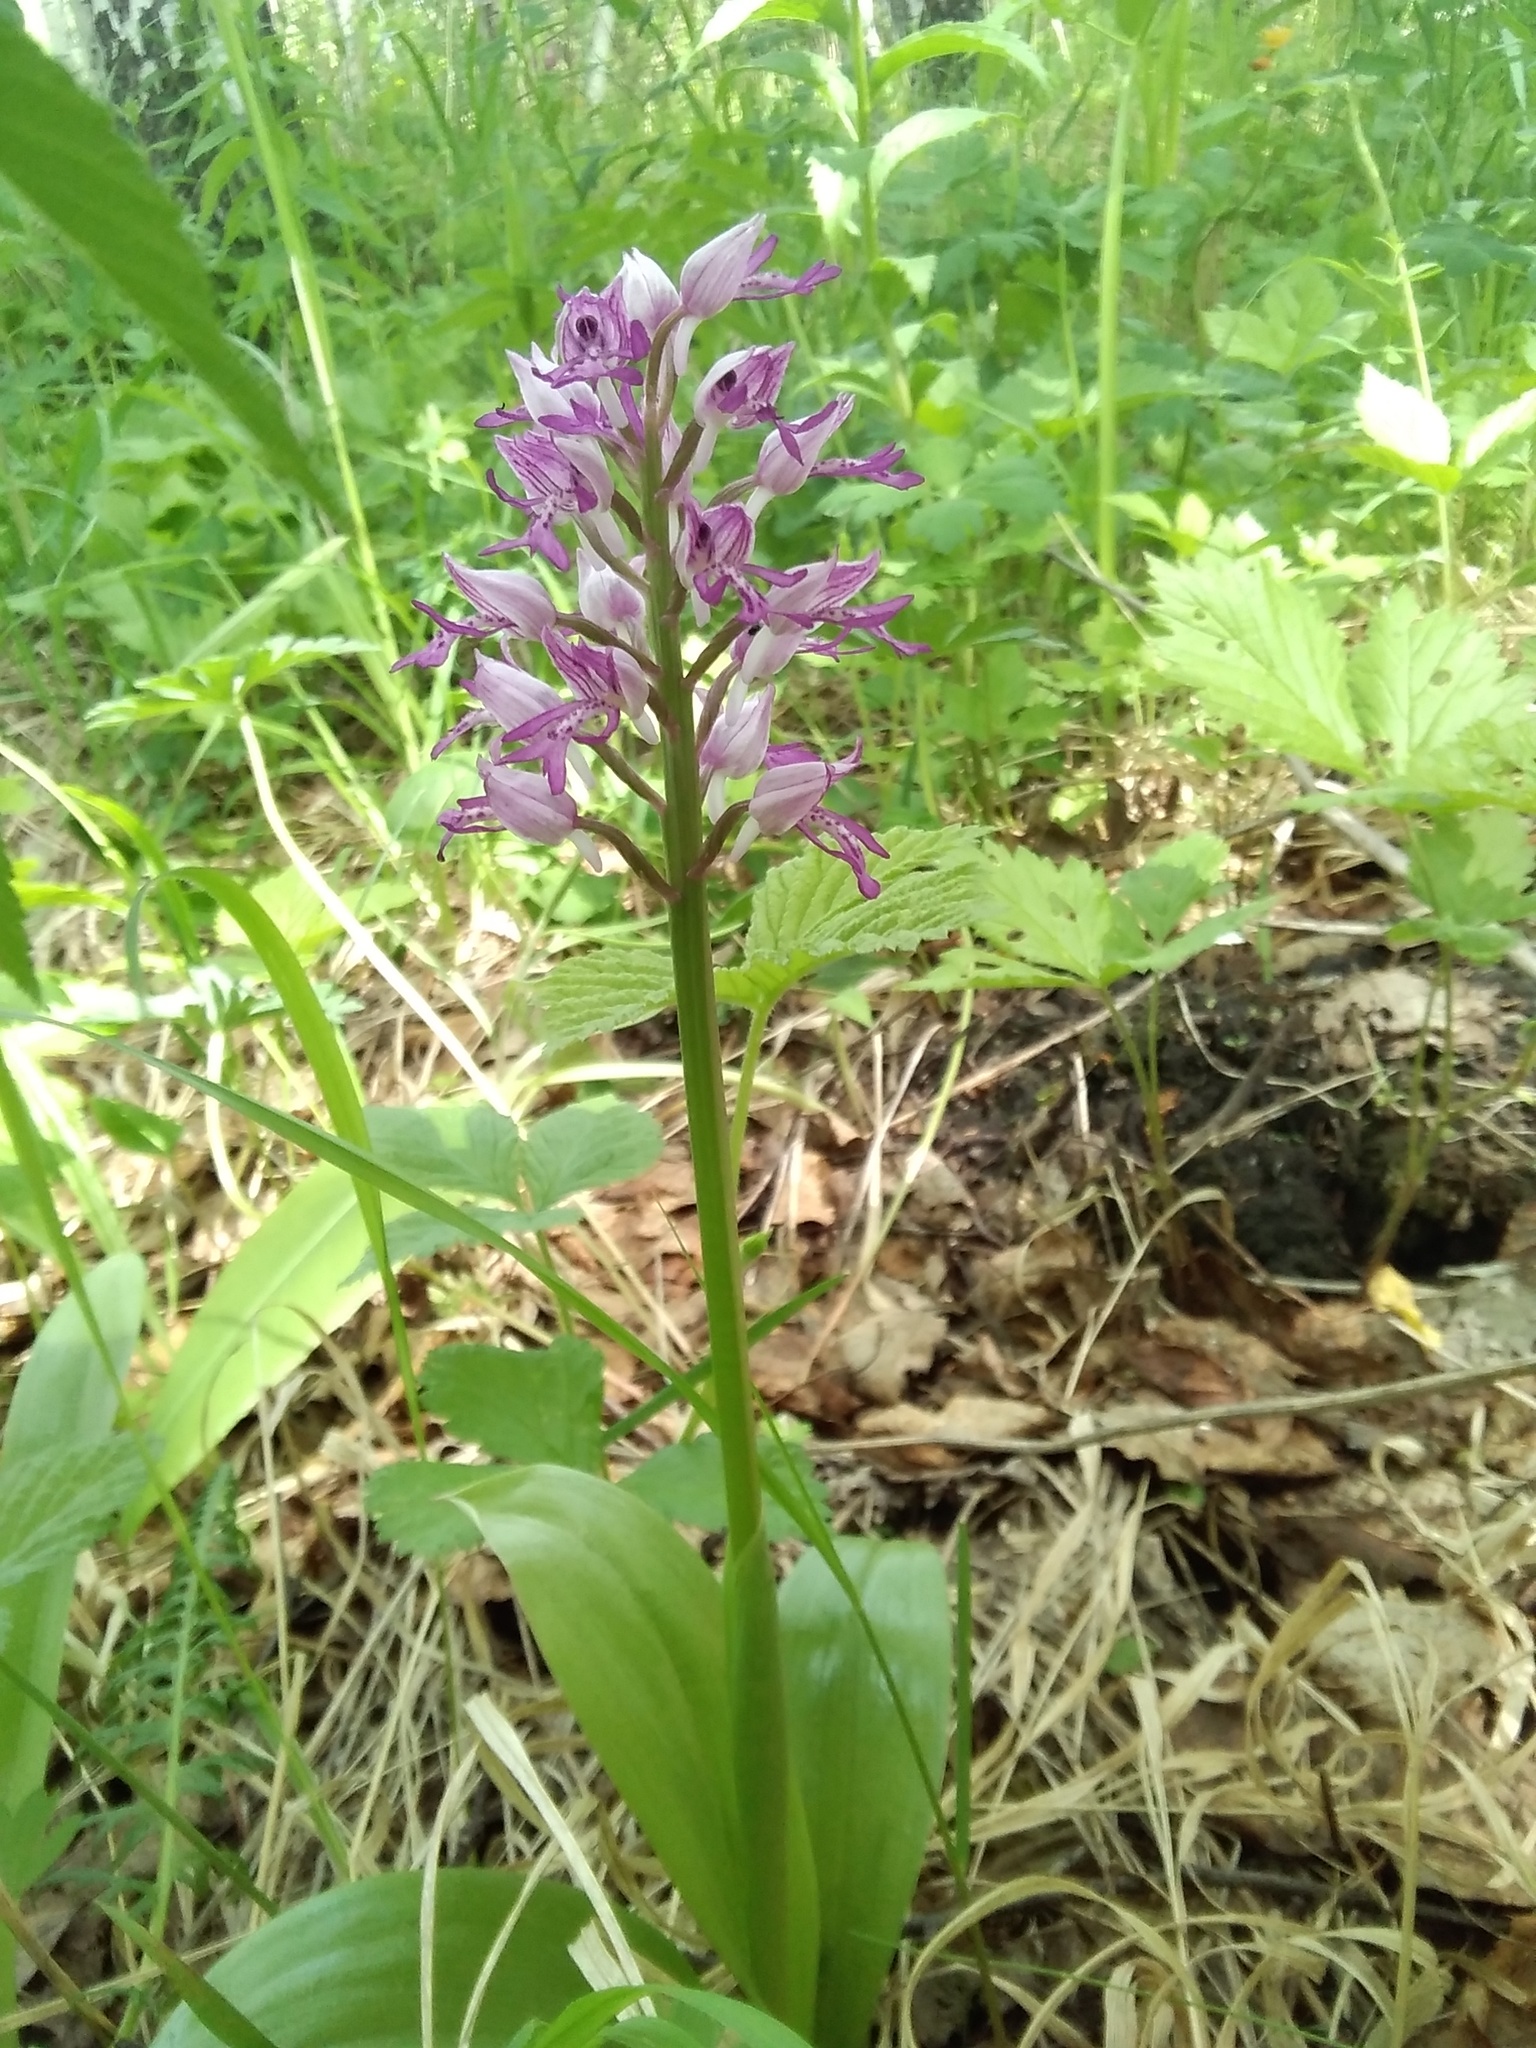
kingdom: Plantae
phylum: Tracheophyta
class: Liliopsida
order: Asparagales
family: Orchidaceae
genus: Orchis
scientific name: Orchis militaris
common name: Military orchid
